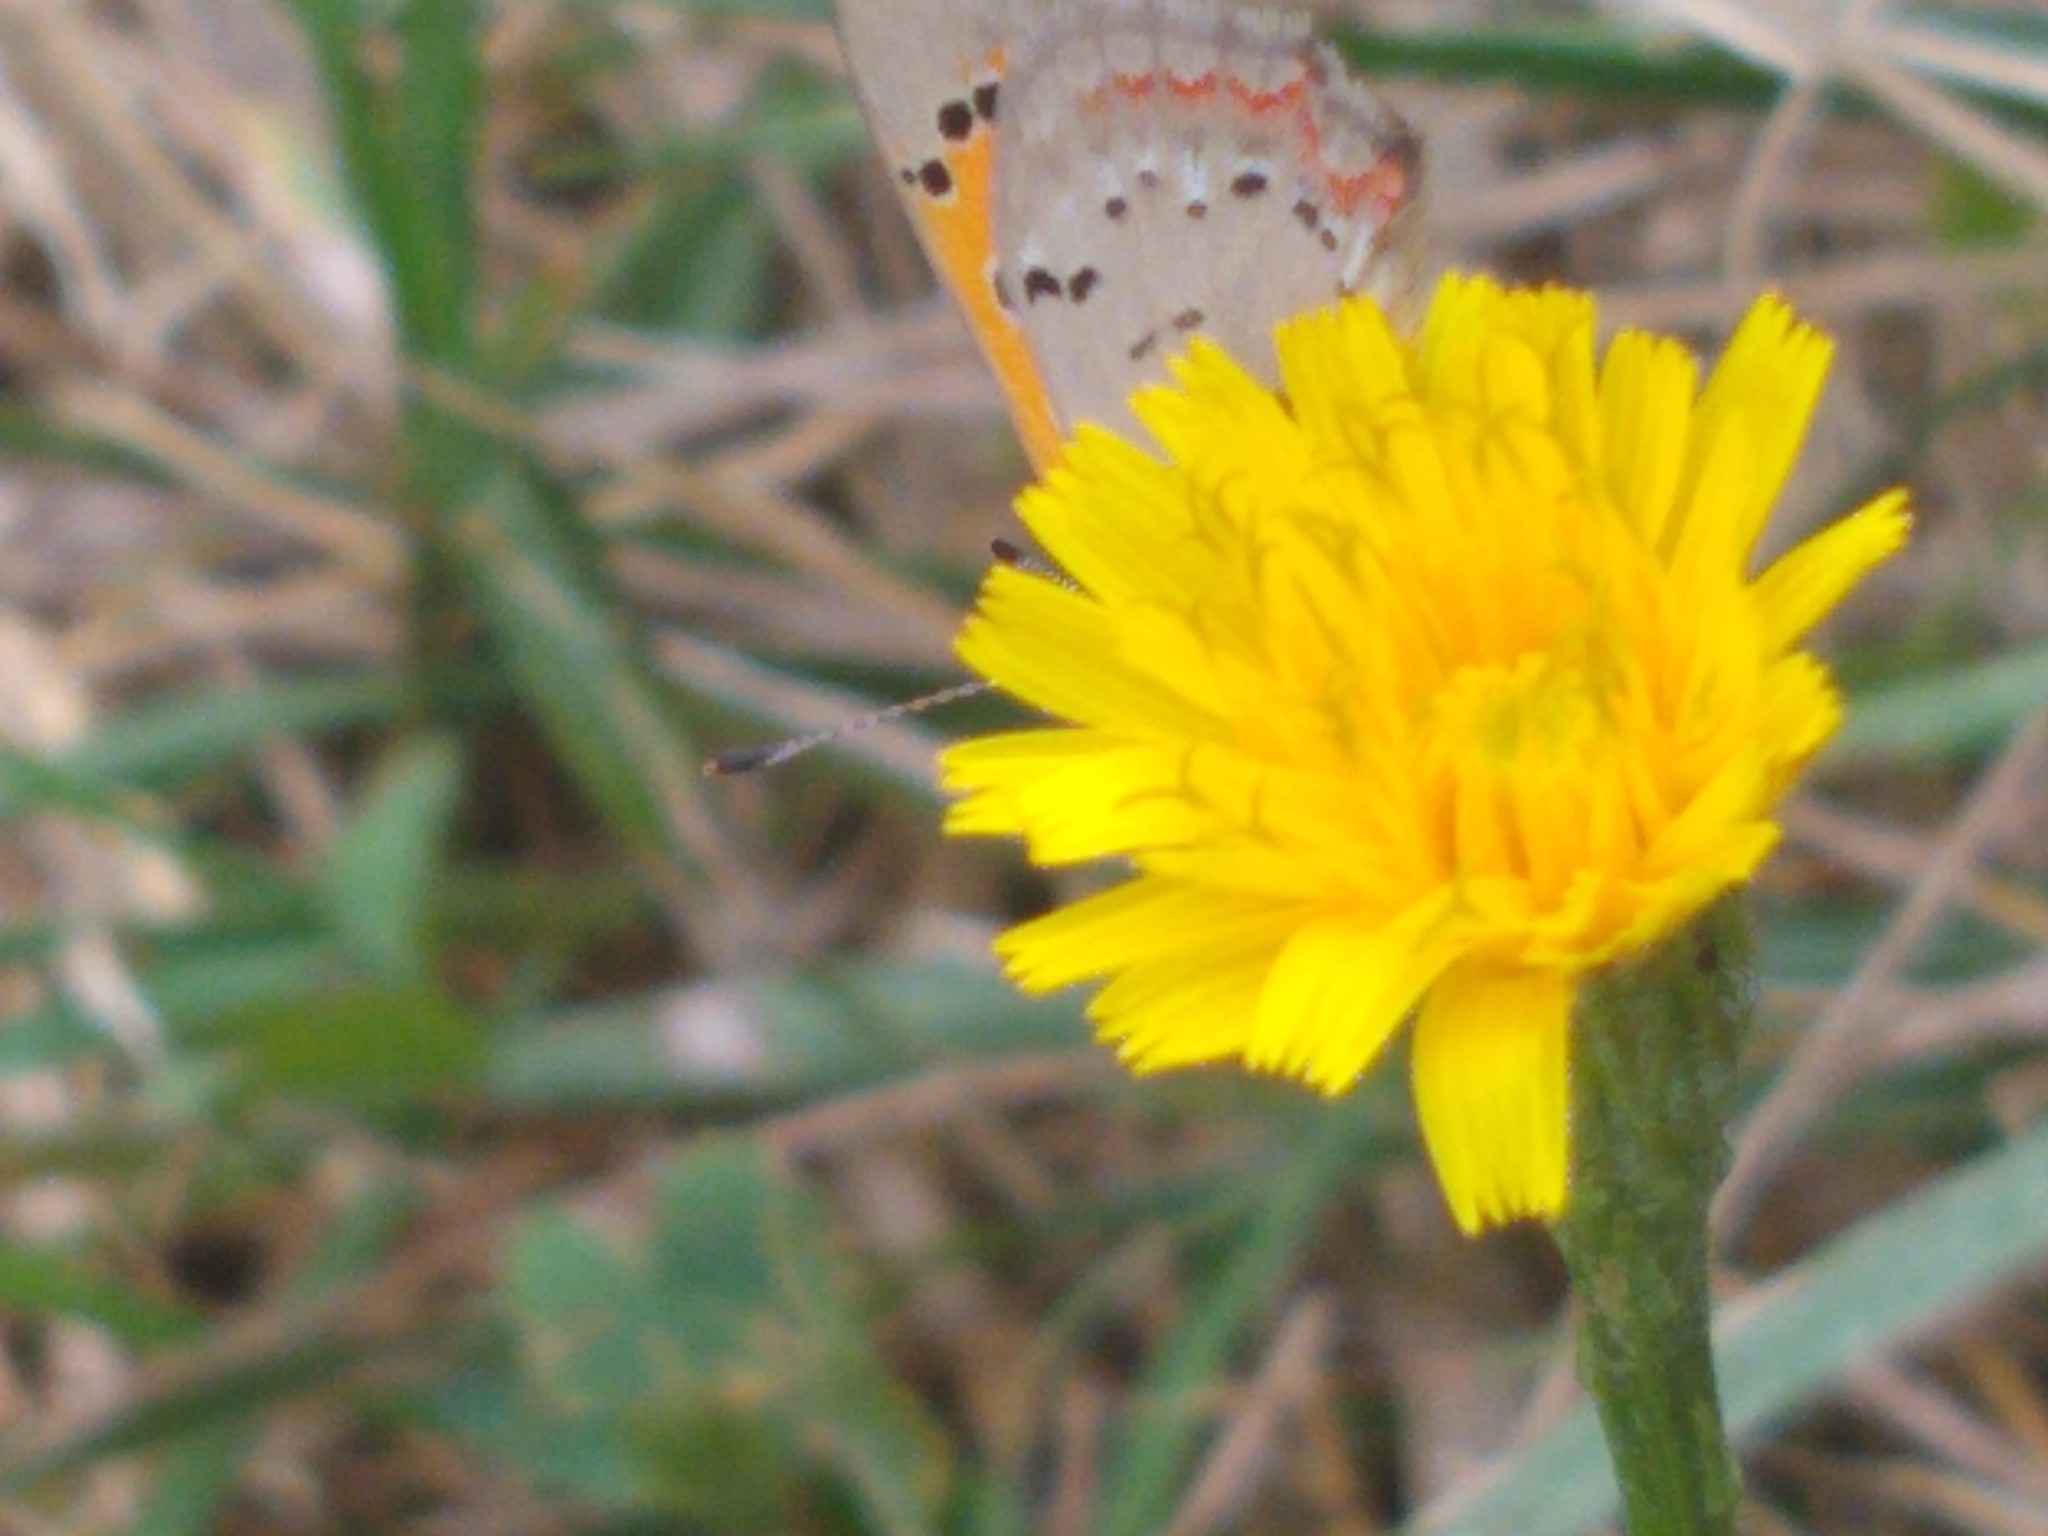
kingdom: Animalia
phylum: Arthropoda
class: Insecta
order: Lepidoptera
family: Lycaenidae
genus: Lycaena
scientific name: Lycaena hypophlaeas
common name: American copper
